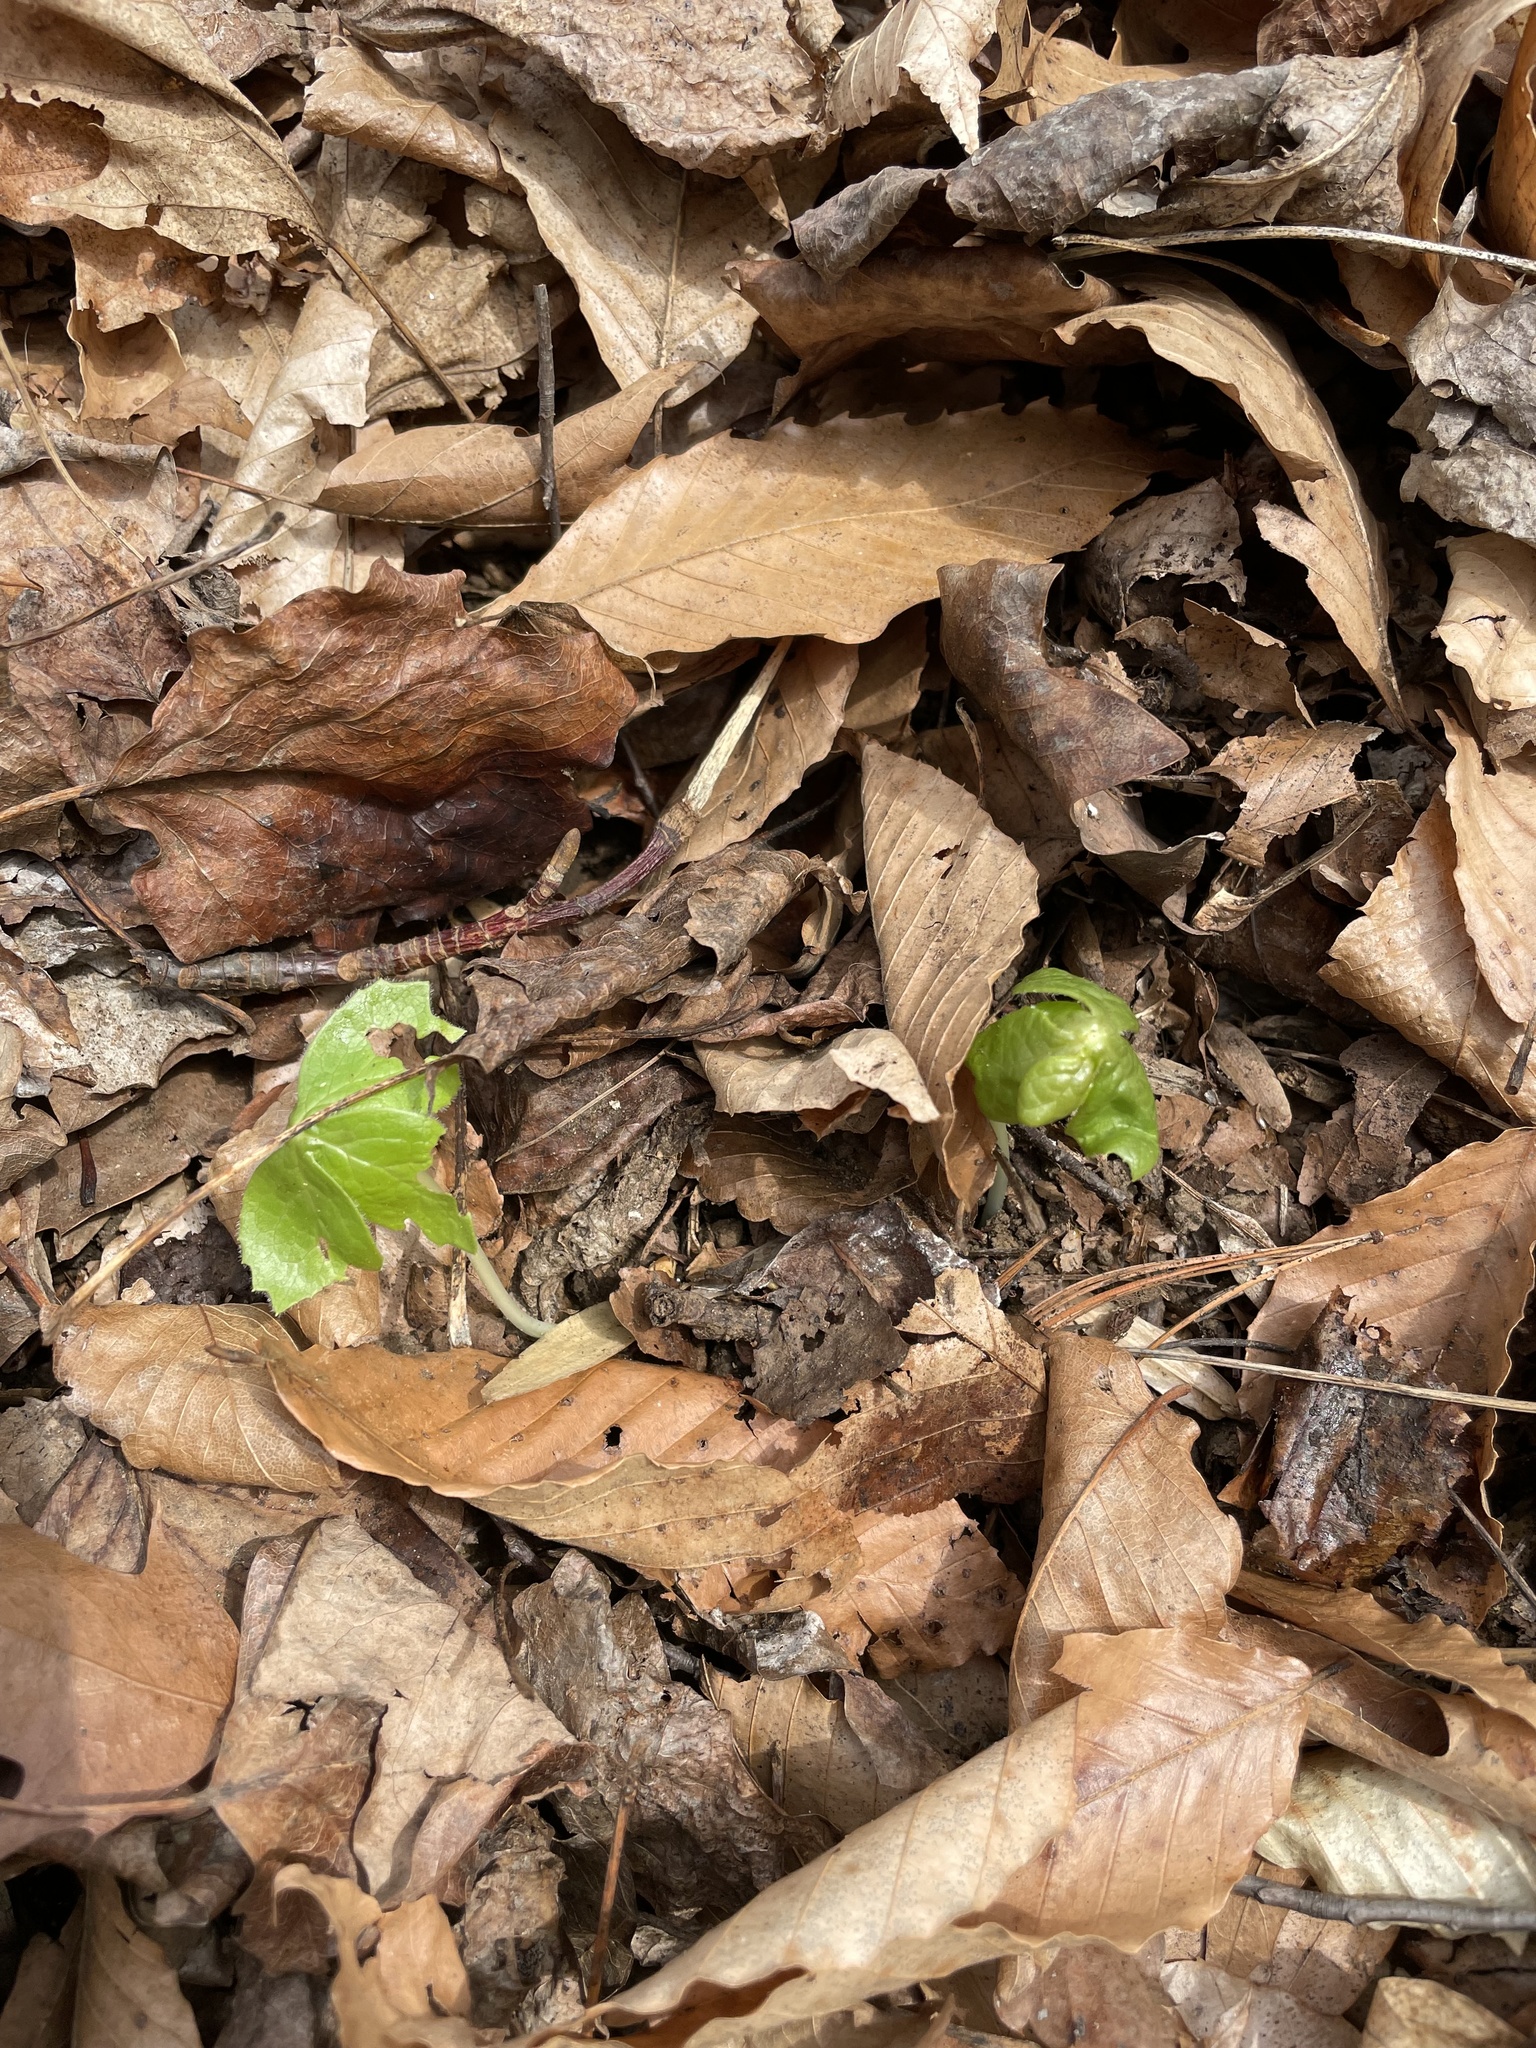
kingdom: Plantae
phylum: Tracheophyta
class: Magnoliopsida
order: Ranunculales
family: Berberidaceae
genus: Podophyllum
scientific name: Podophyllum peltatum
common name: Wild mandrake
